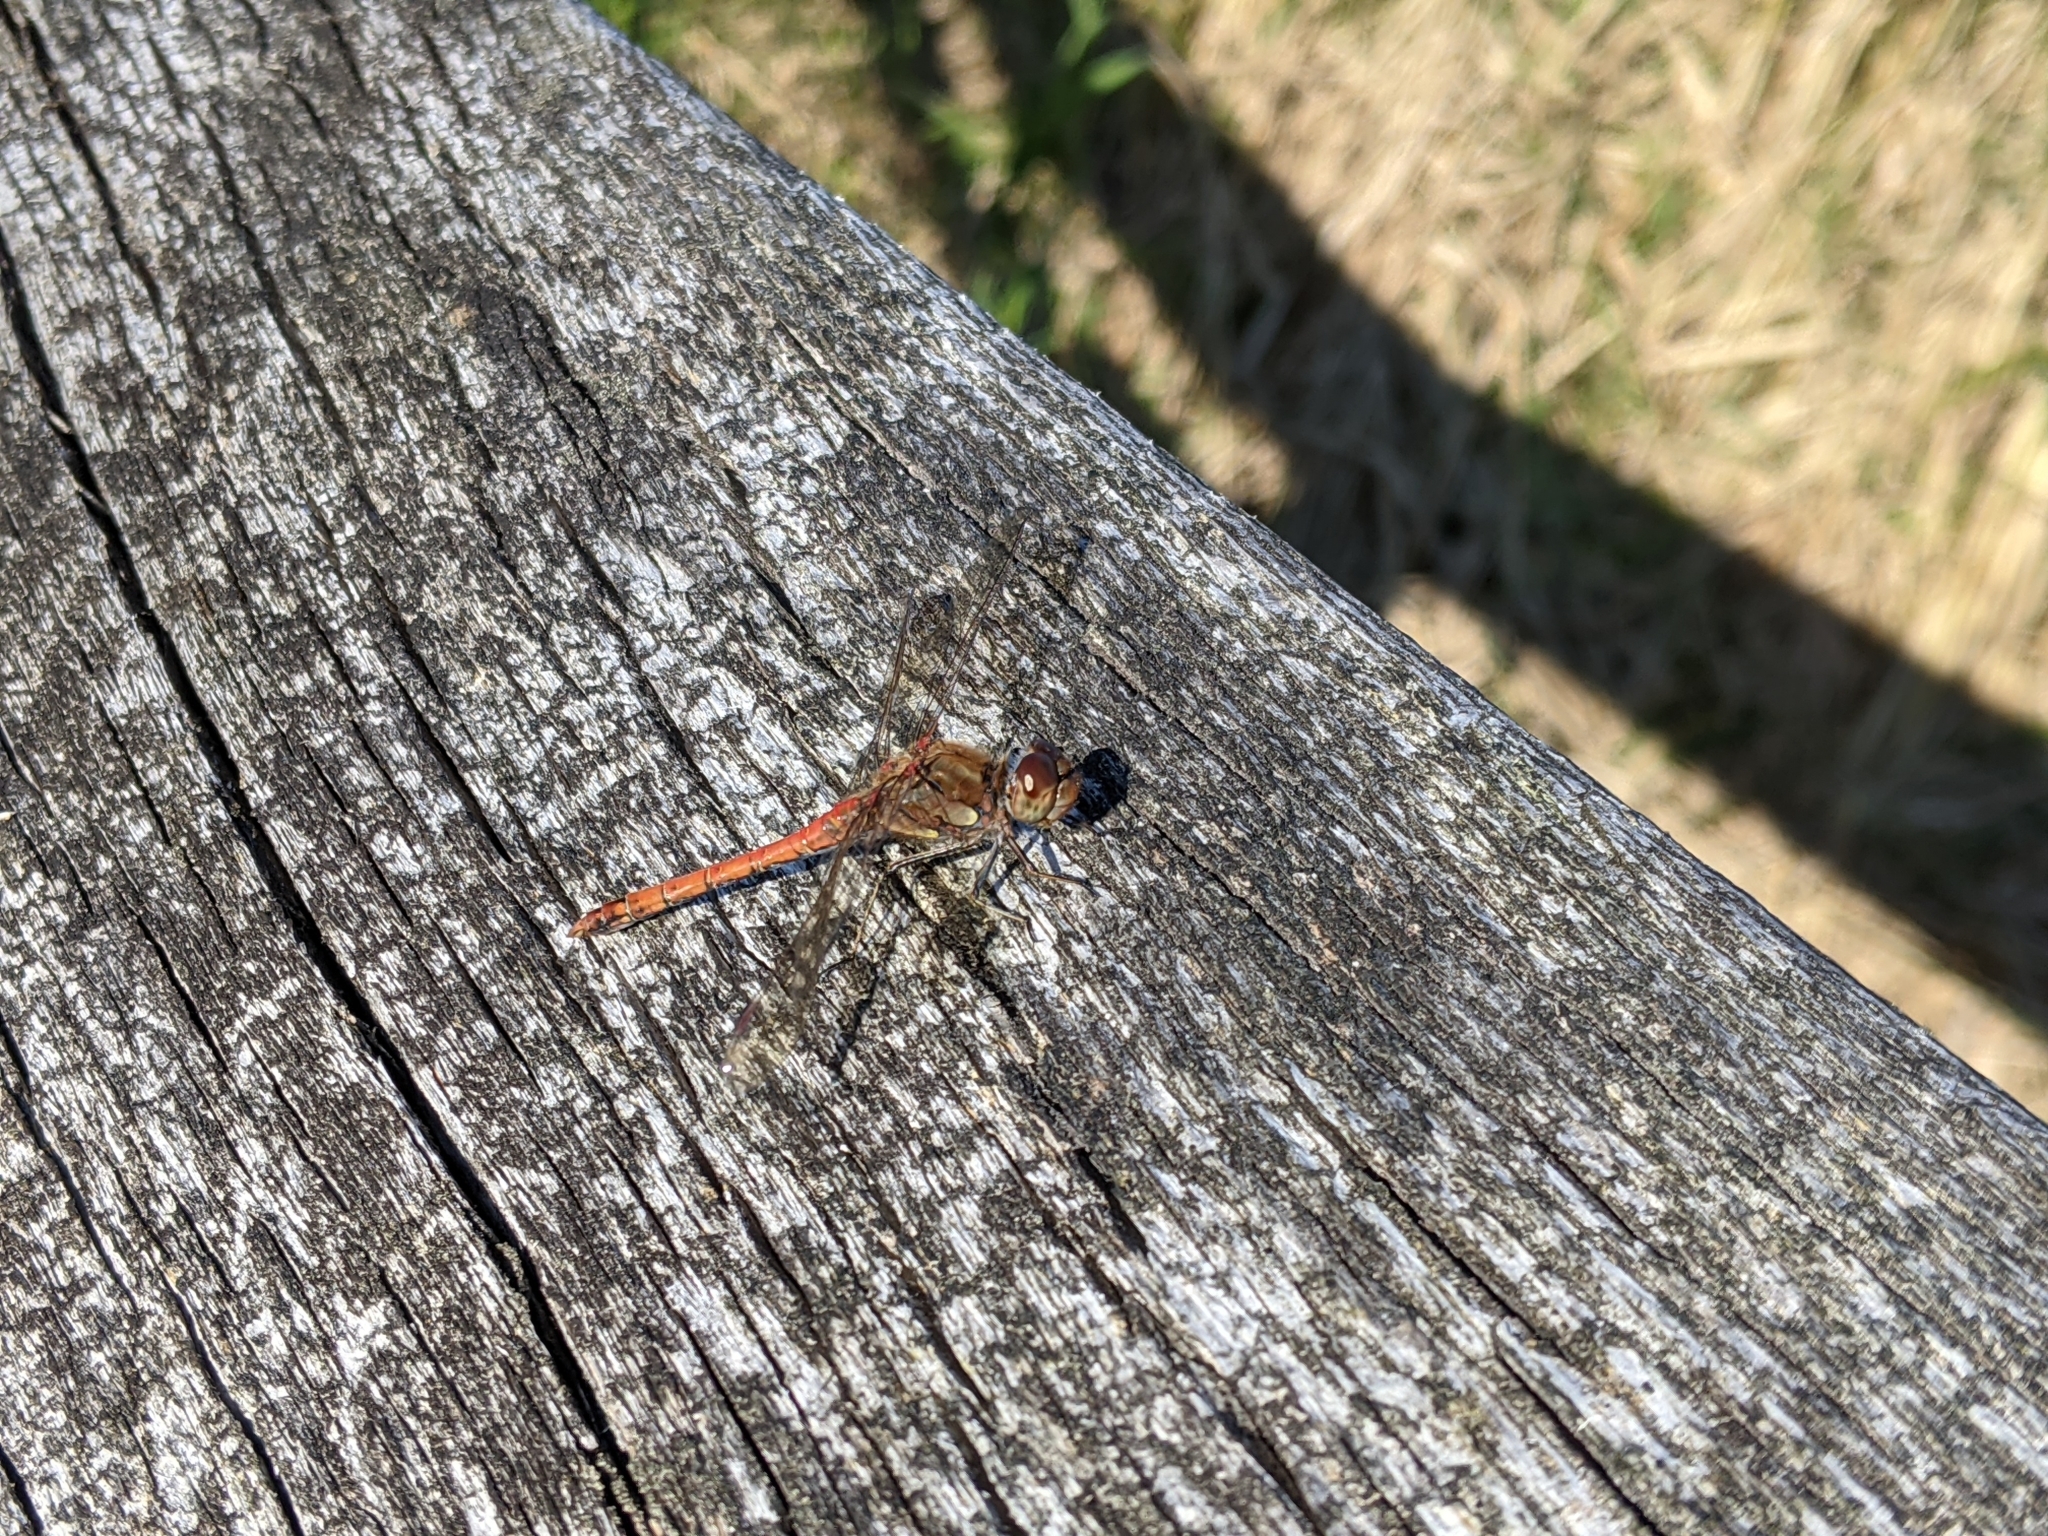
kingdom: Animalia
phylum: Arthropoda
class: Insecta
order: Odonata
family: Libellulidae
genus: Sympetrum
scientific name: Sympetrum striolatum
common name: Common darter
